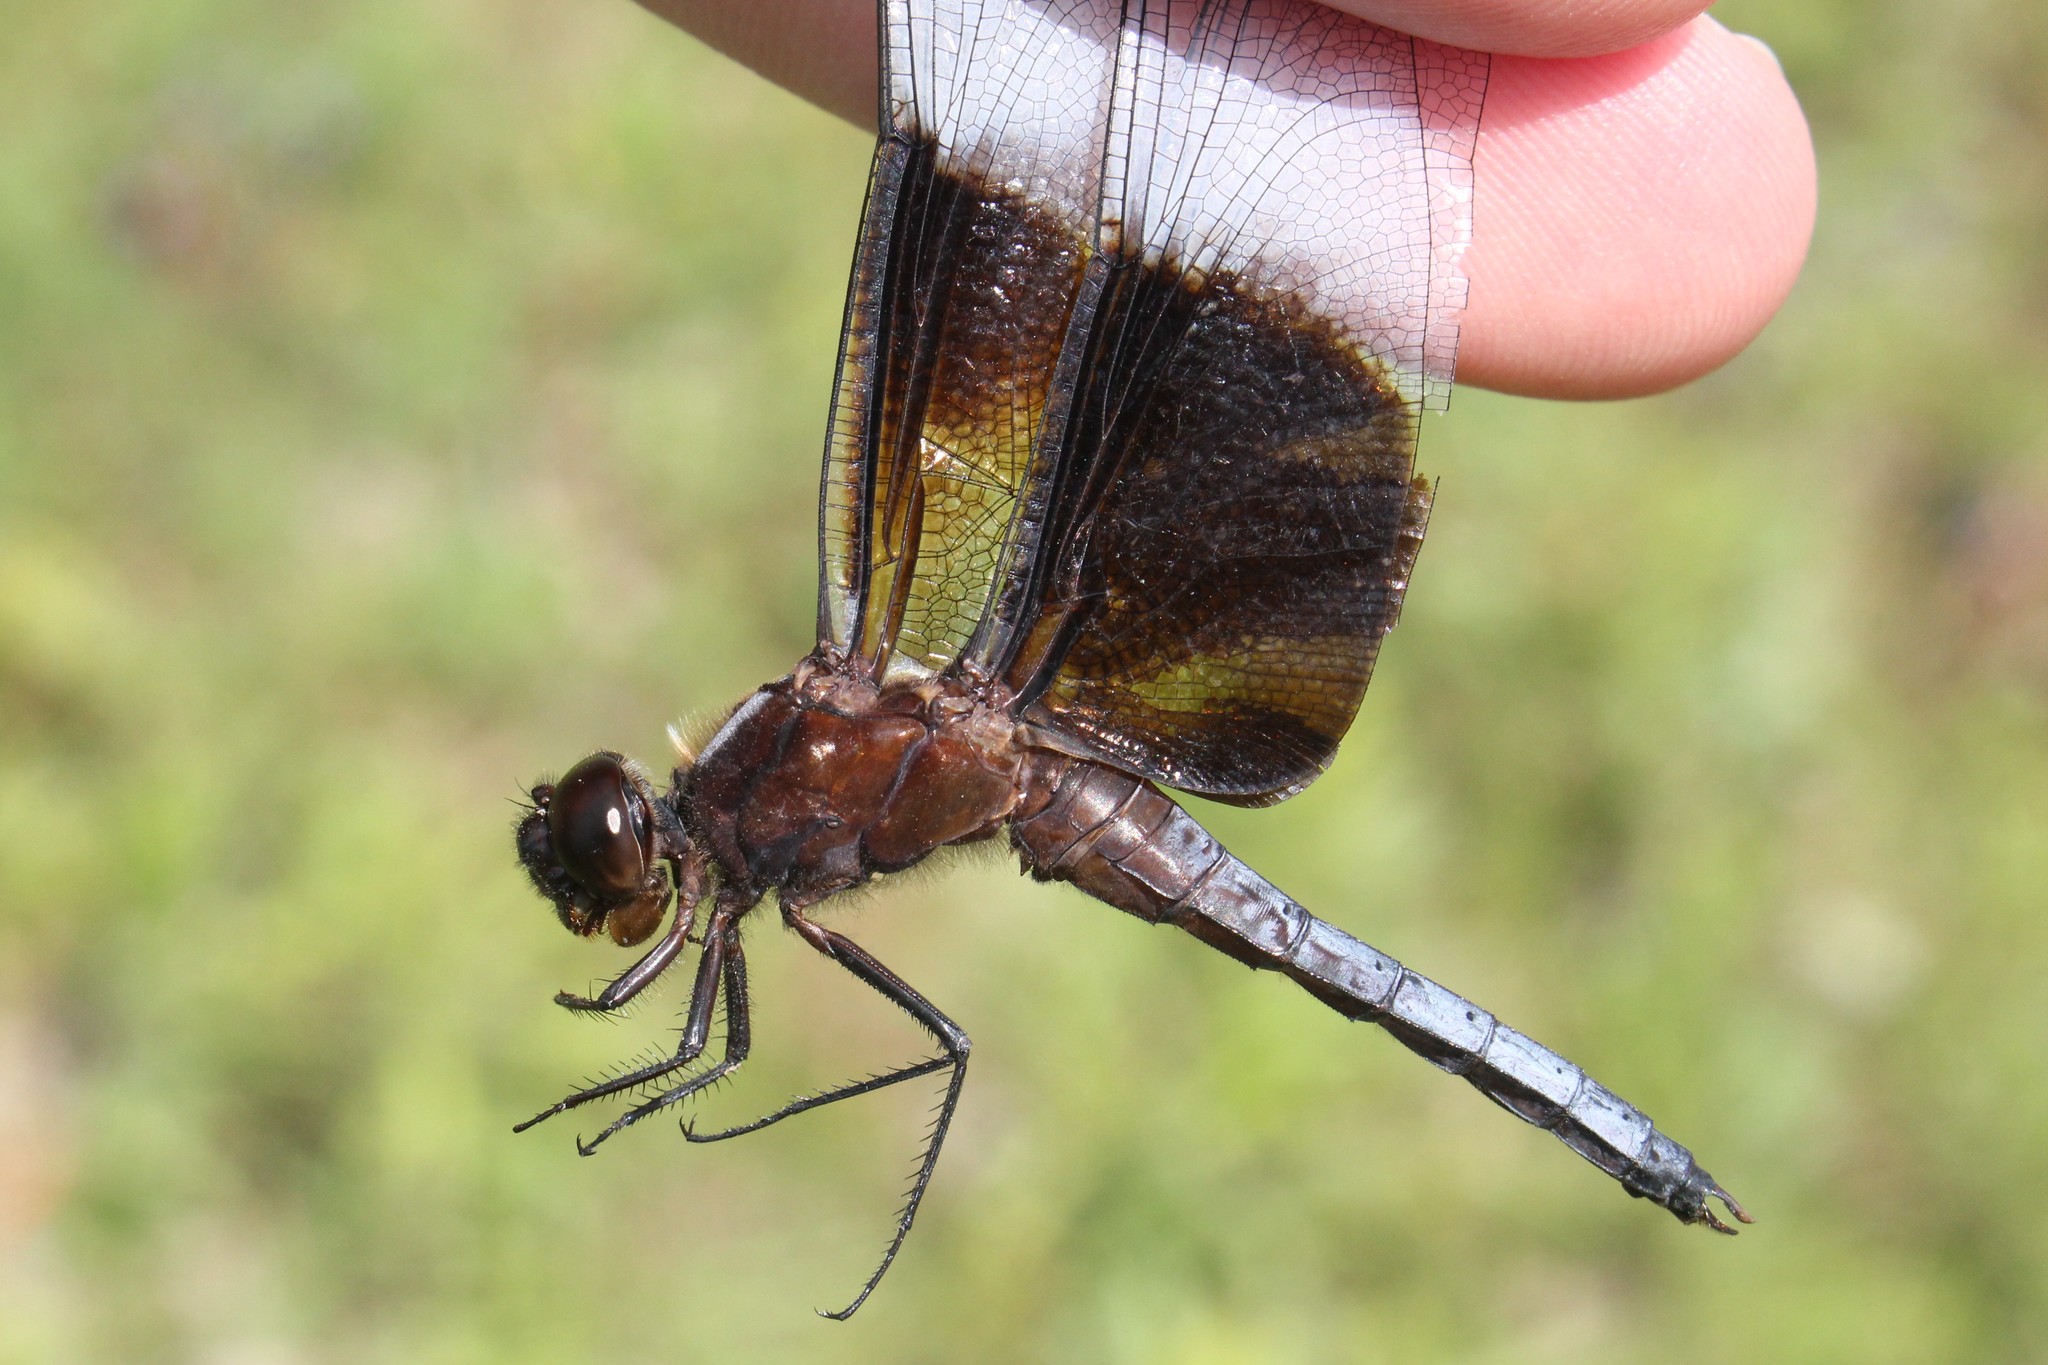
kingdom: Animalia
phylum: Arthropoda
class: Insecta
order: Odonata
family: Libellulidae
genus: Libellula
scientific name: Libellula luctuosa
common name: Widow skimmer
